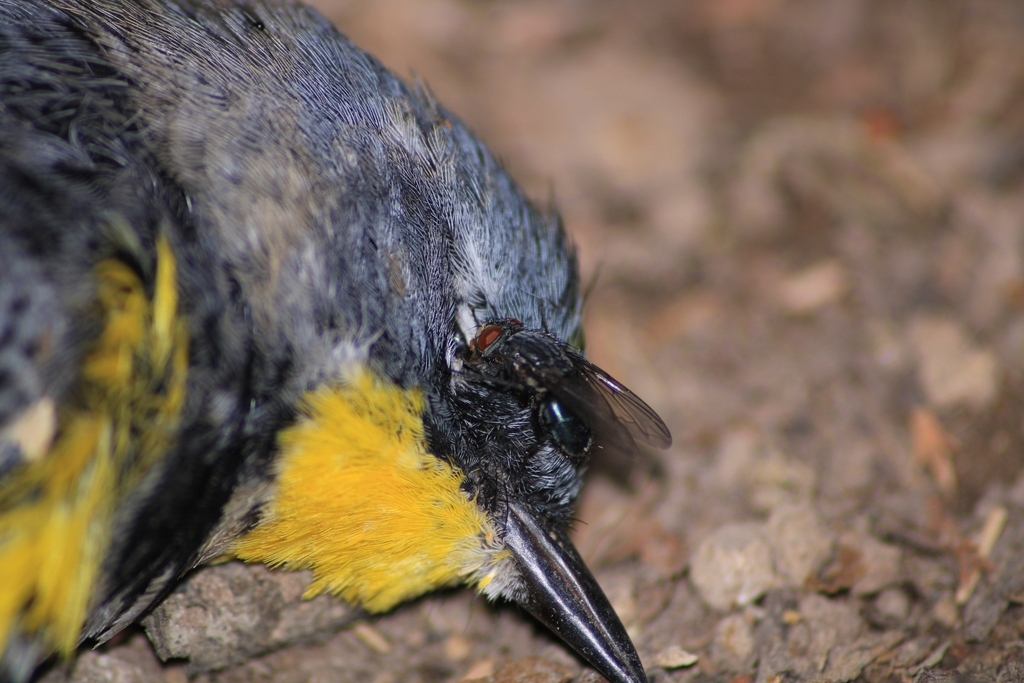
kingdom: Animalia
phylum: Arthropoda
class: Insecta
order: Diptera
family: Calliphoridae
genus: Calliphora
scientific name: Calliphora vicina
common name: Common blow flie
